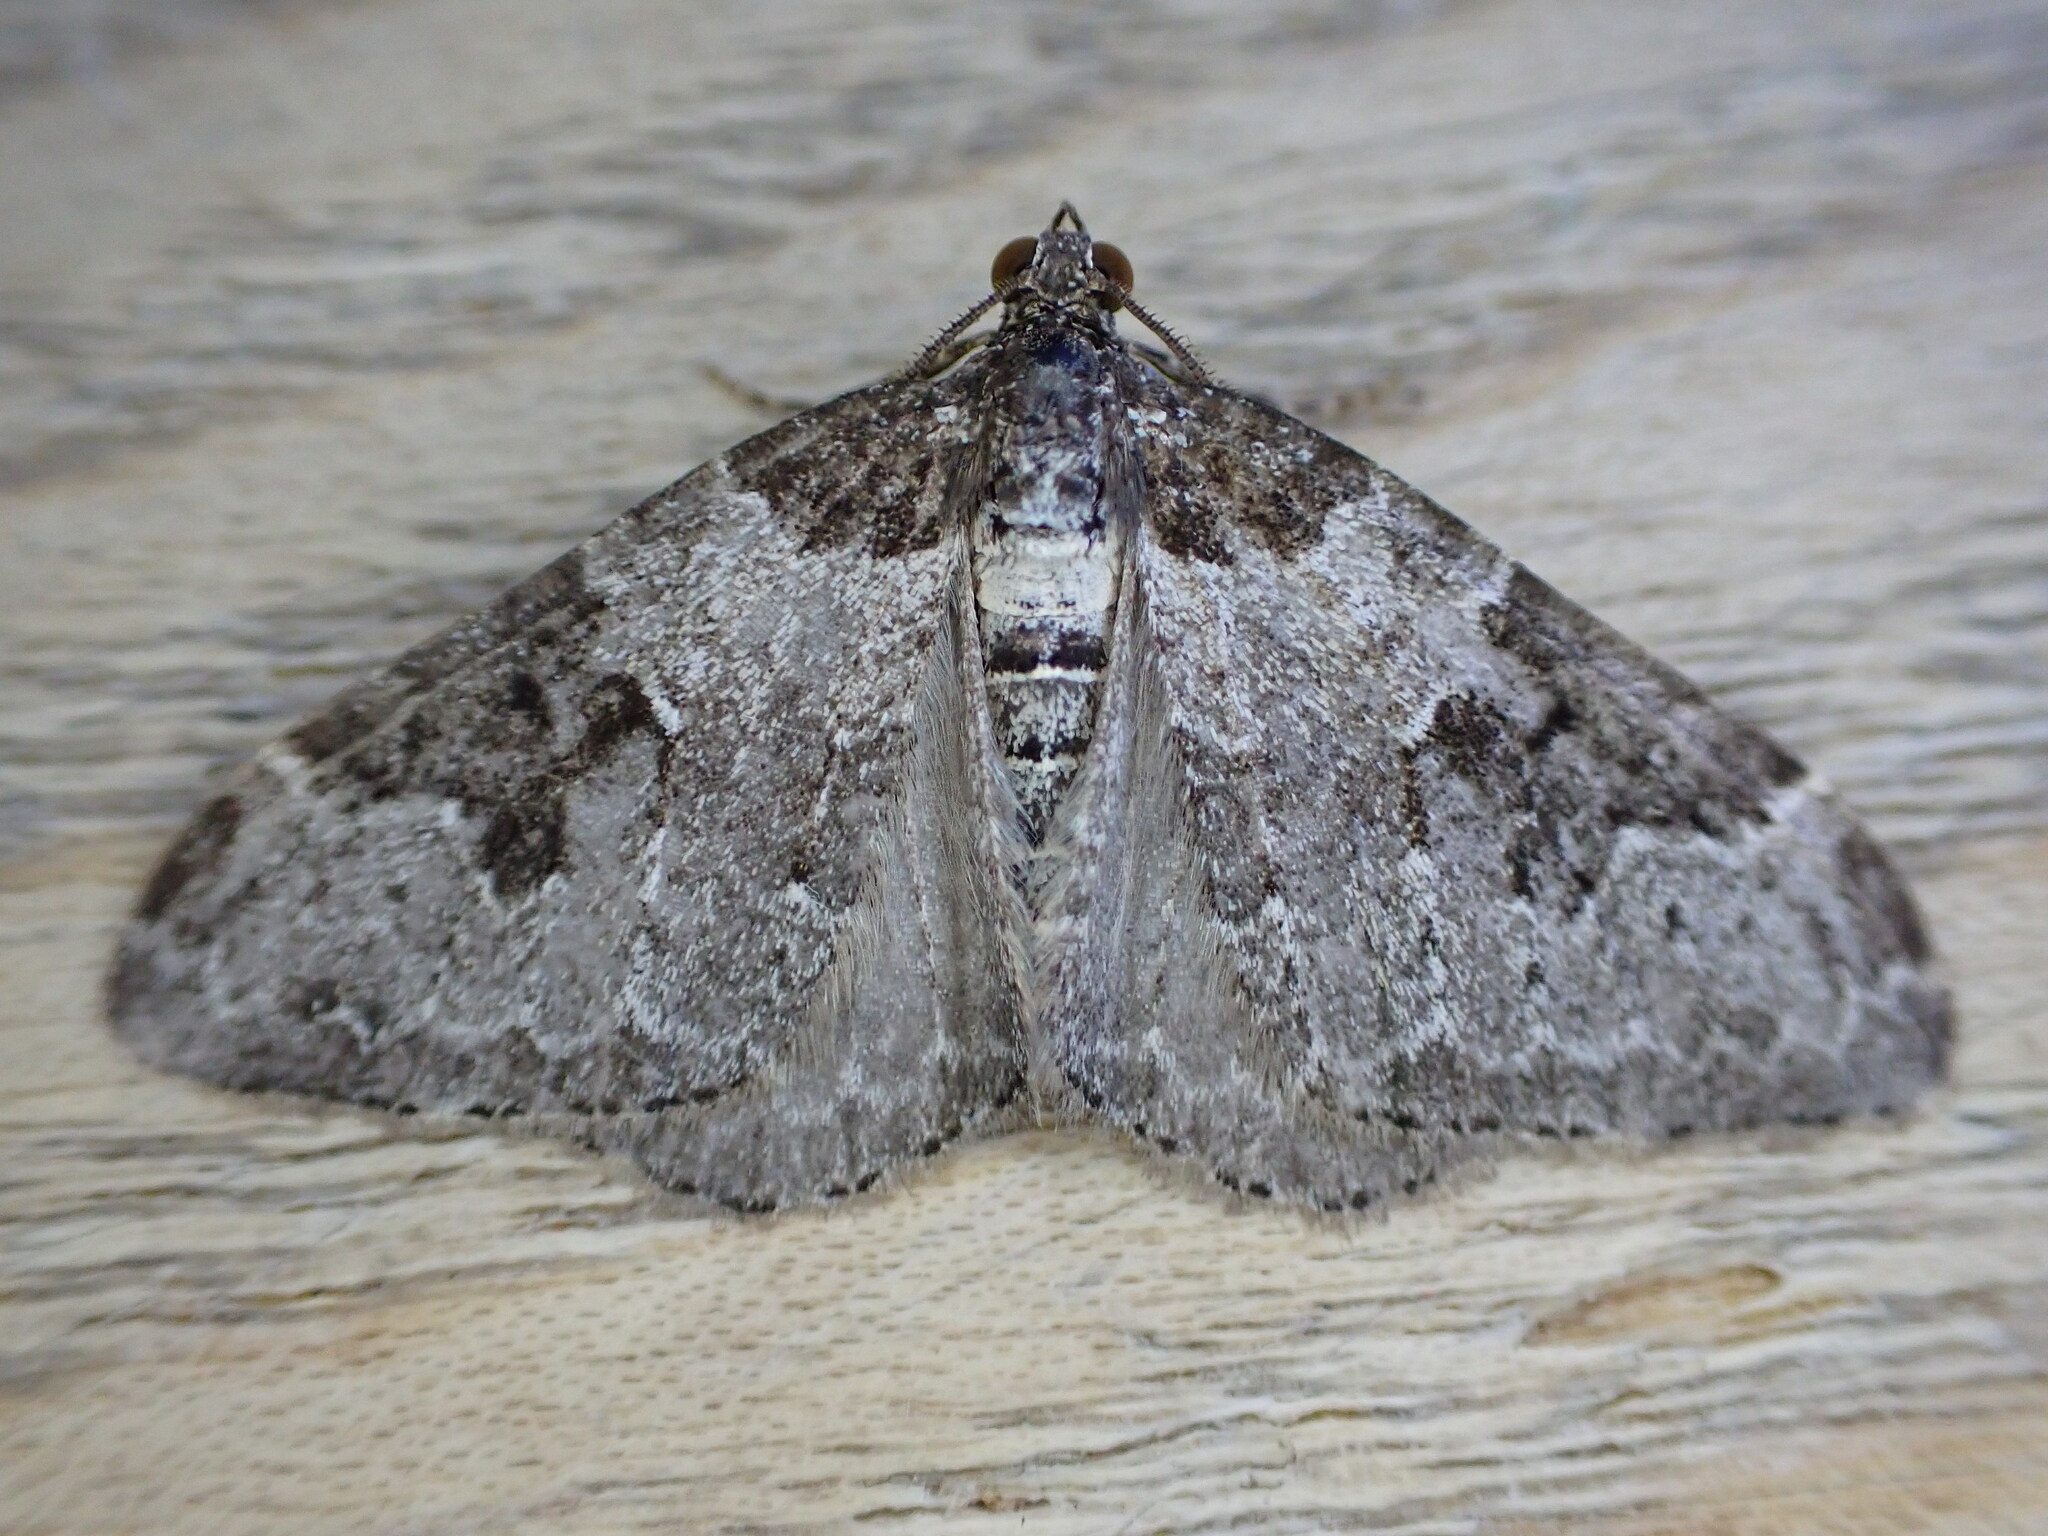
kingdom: Animalia
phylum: Arthropoda
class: Insecta
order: Lepidoptera
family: Geometridae
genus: Xanthorhoe
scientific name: Xanthorhoe fluctuata
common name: Garden carpet
